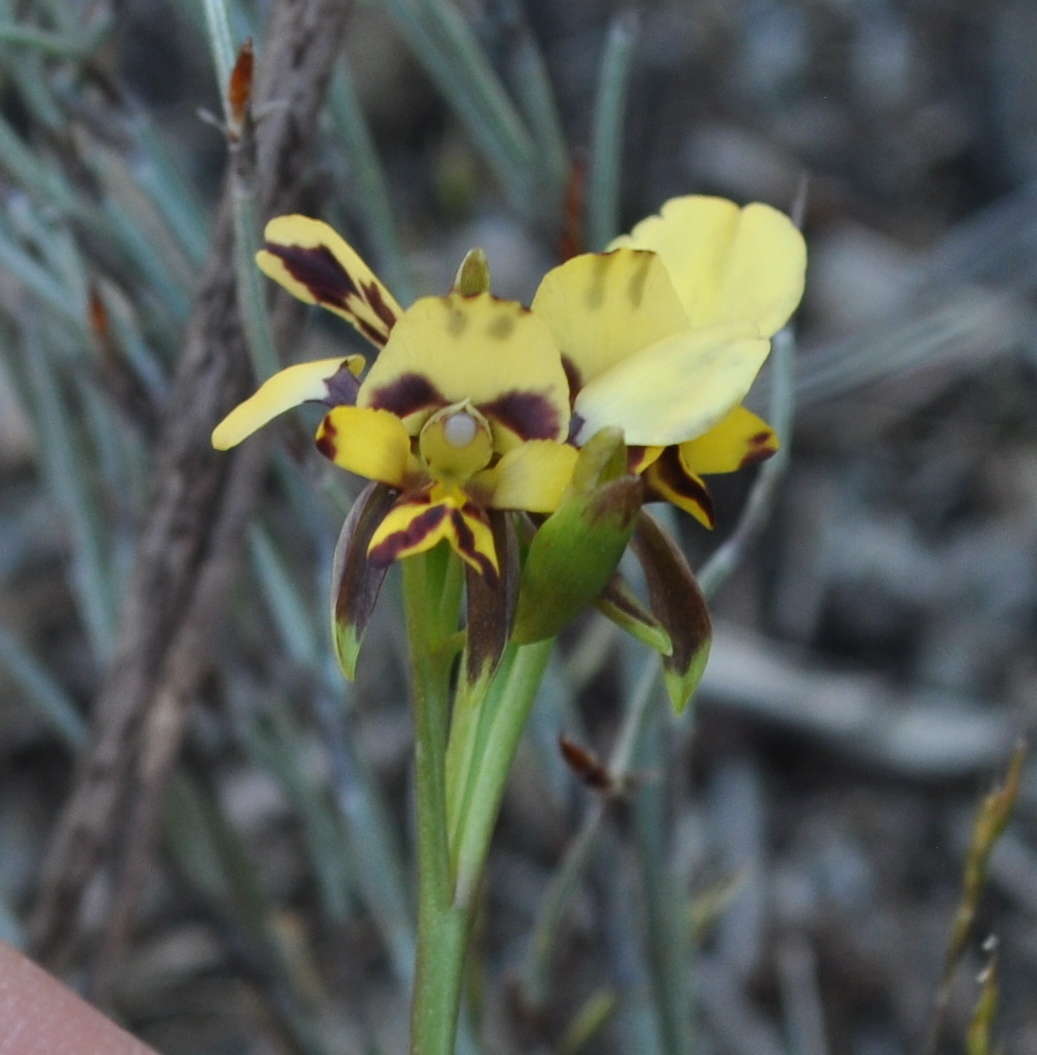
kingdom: Plantae
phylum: Tracheophyta
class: Liliopsida
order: Asparagales
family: Orchidaceae
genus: Diuris
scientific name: Diuris pardina
